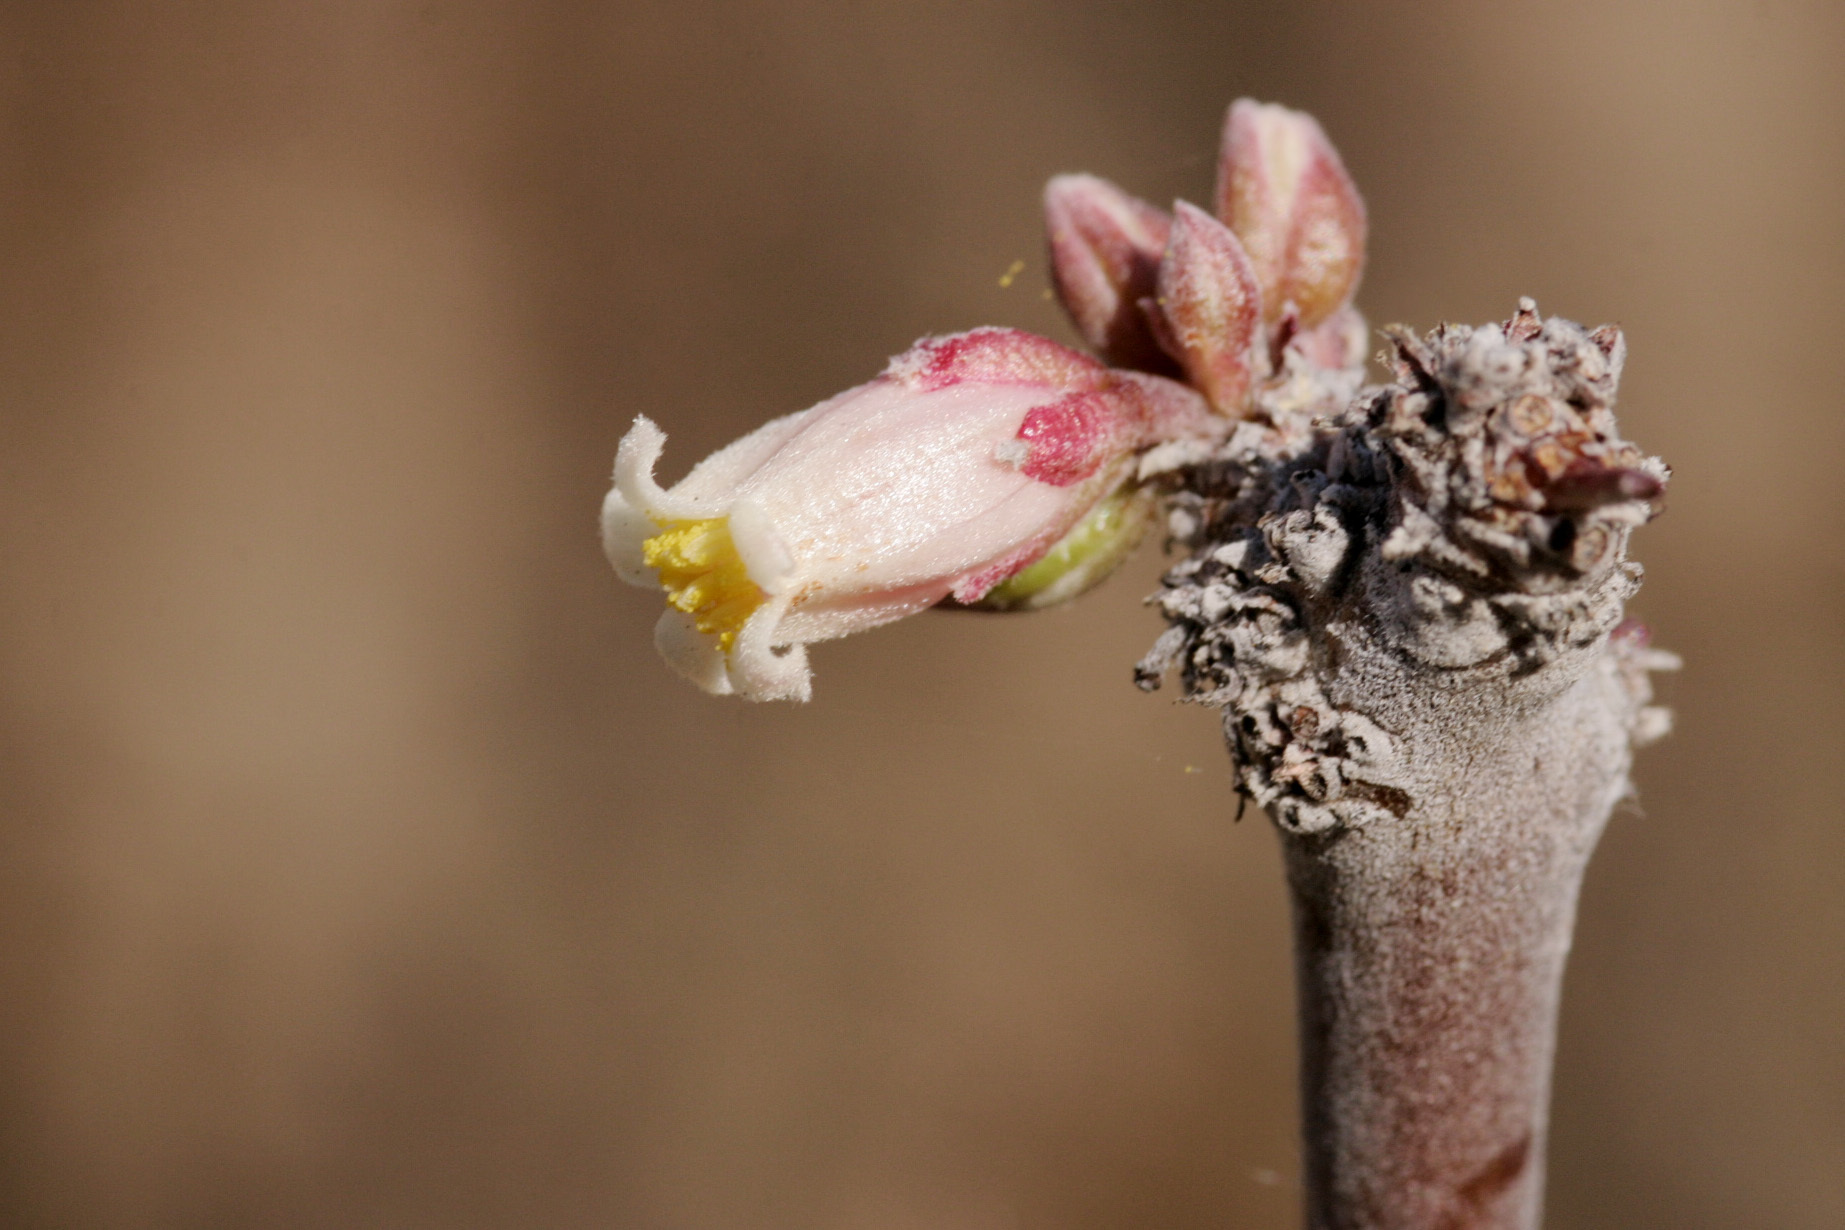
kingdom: Plantae
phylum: Tracheophyta
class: Magnoliopsida
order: Malpighiales
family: Euphorbiaceae
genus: Jatropha
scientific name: Jatropha dioica
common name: Leatherstem
